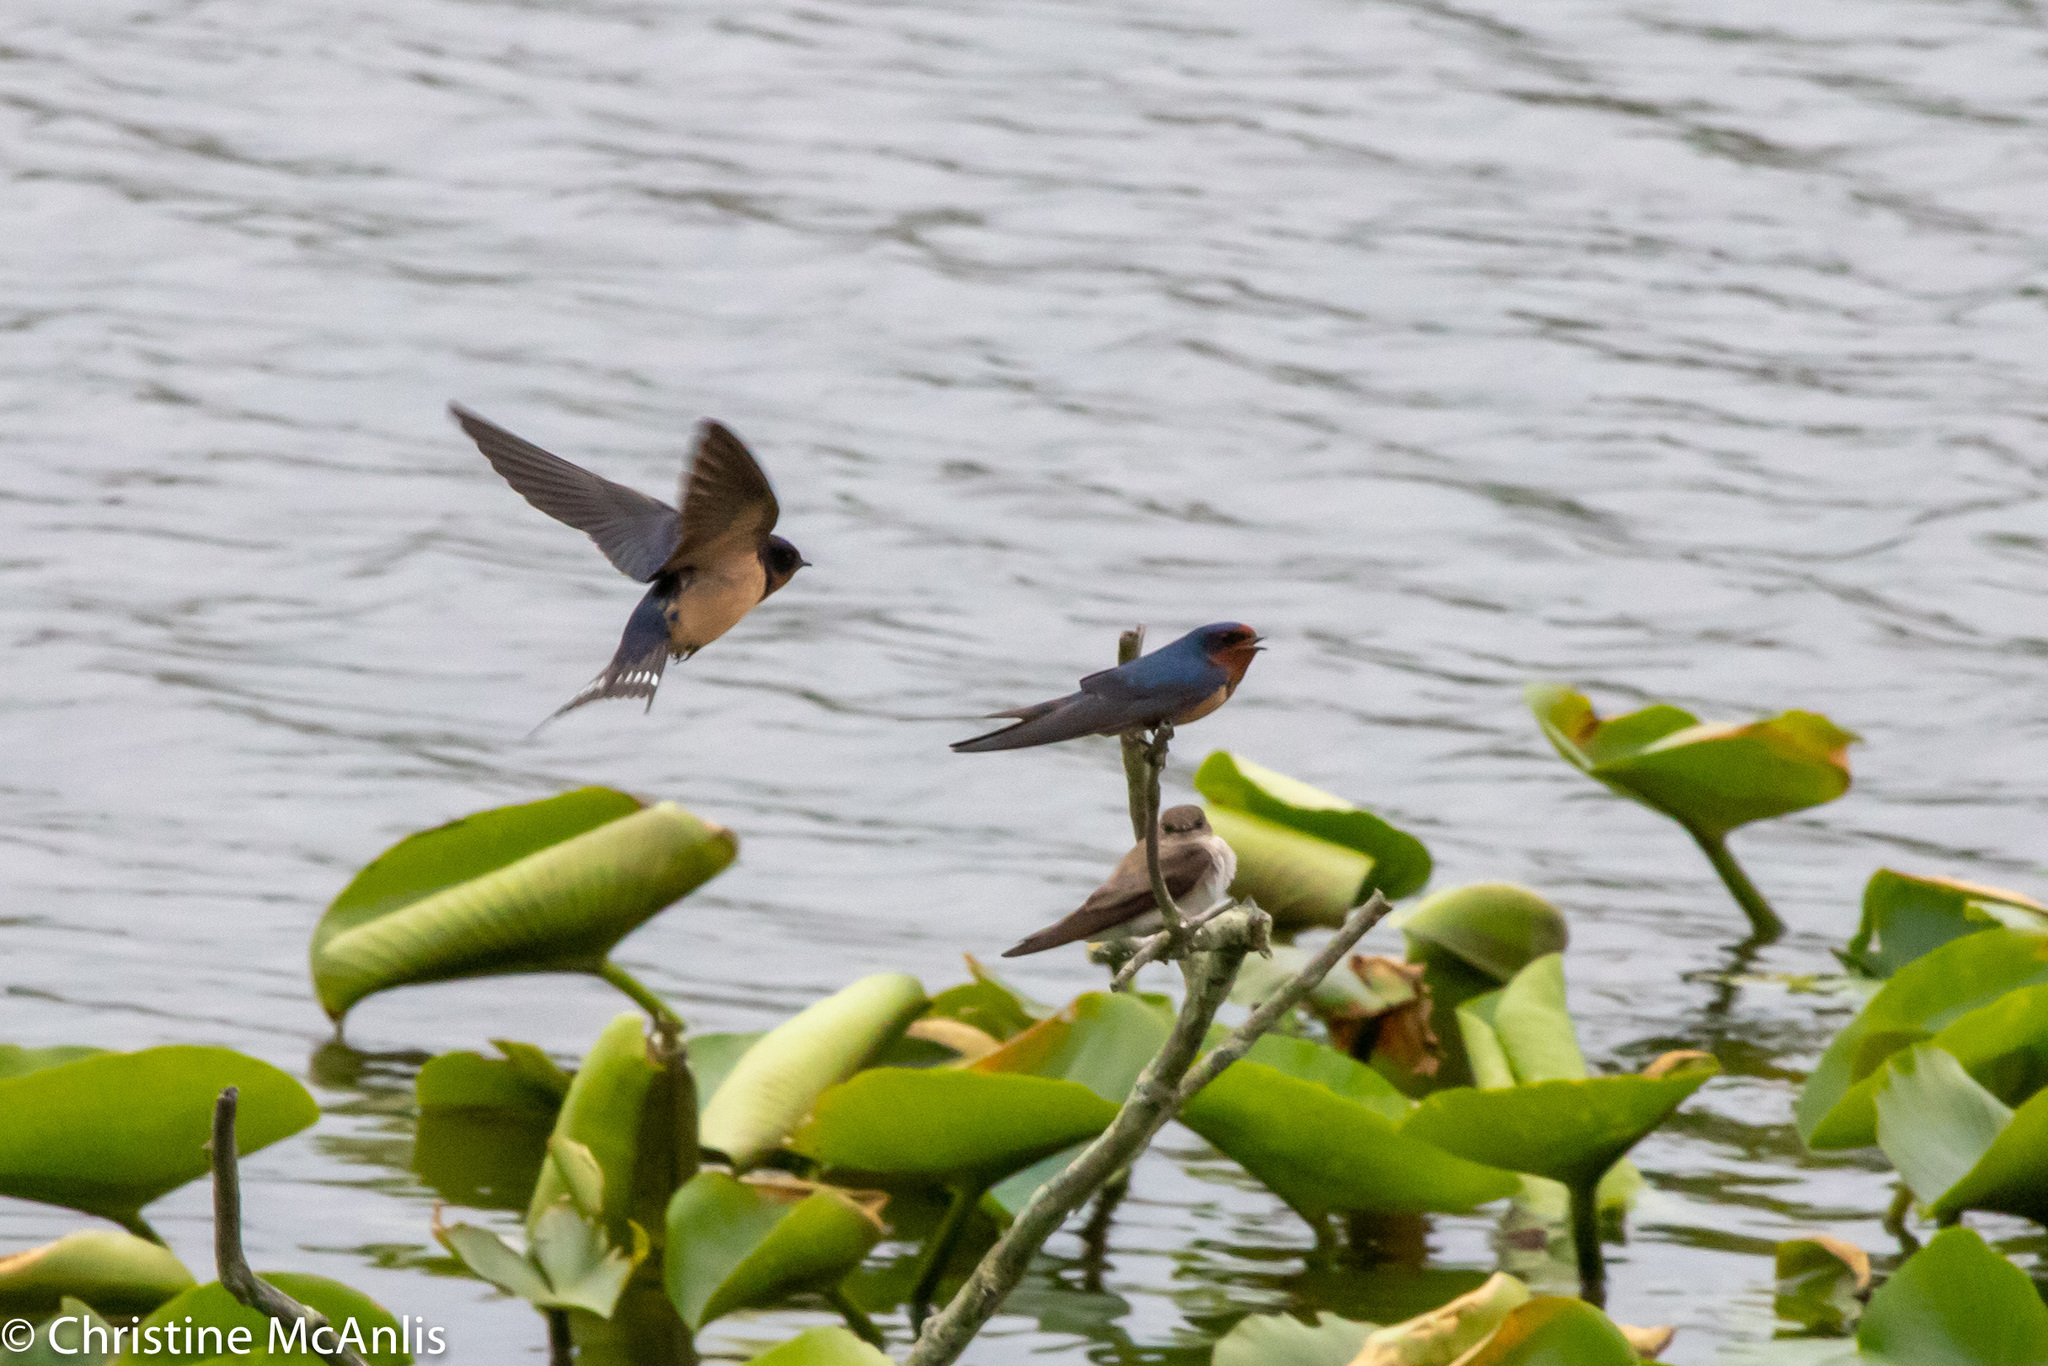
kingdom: Animalia
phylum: Chordata
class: Aves
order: Passeriformes
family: Hirundinidae
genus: Hirundo
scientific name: Hirundo rustica
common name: Barn swallow
